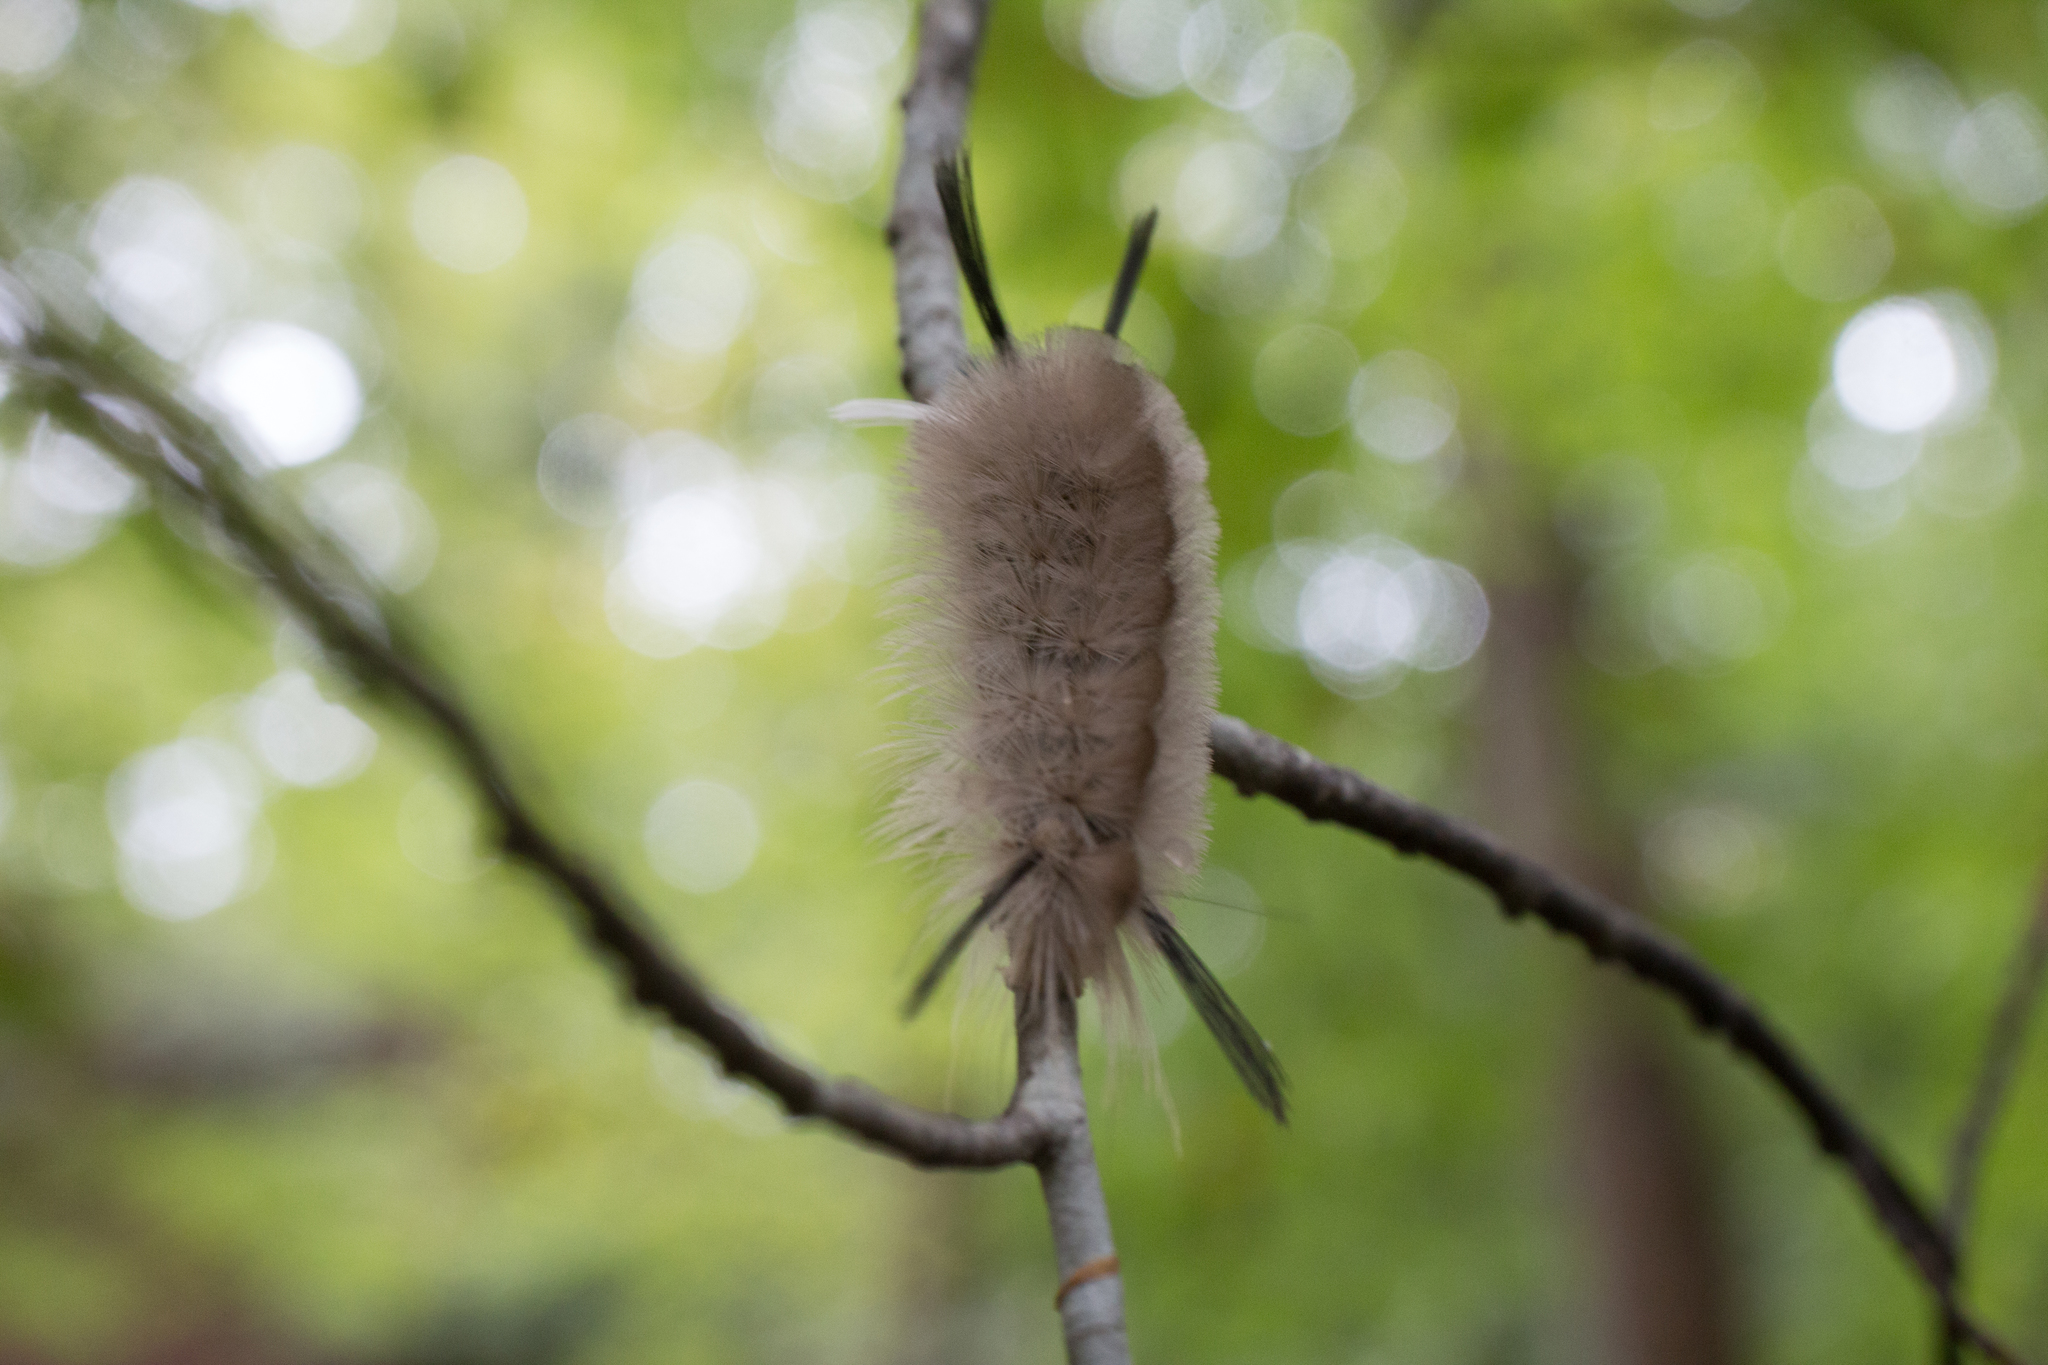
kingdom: Animalia
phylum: Arthropoda
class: Insecta
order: Lepidoptera
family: Erebidae
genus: Halysidota
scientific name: Halysidota tessellaris
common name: Banded tussock moth
